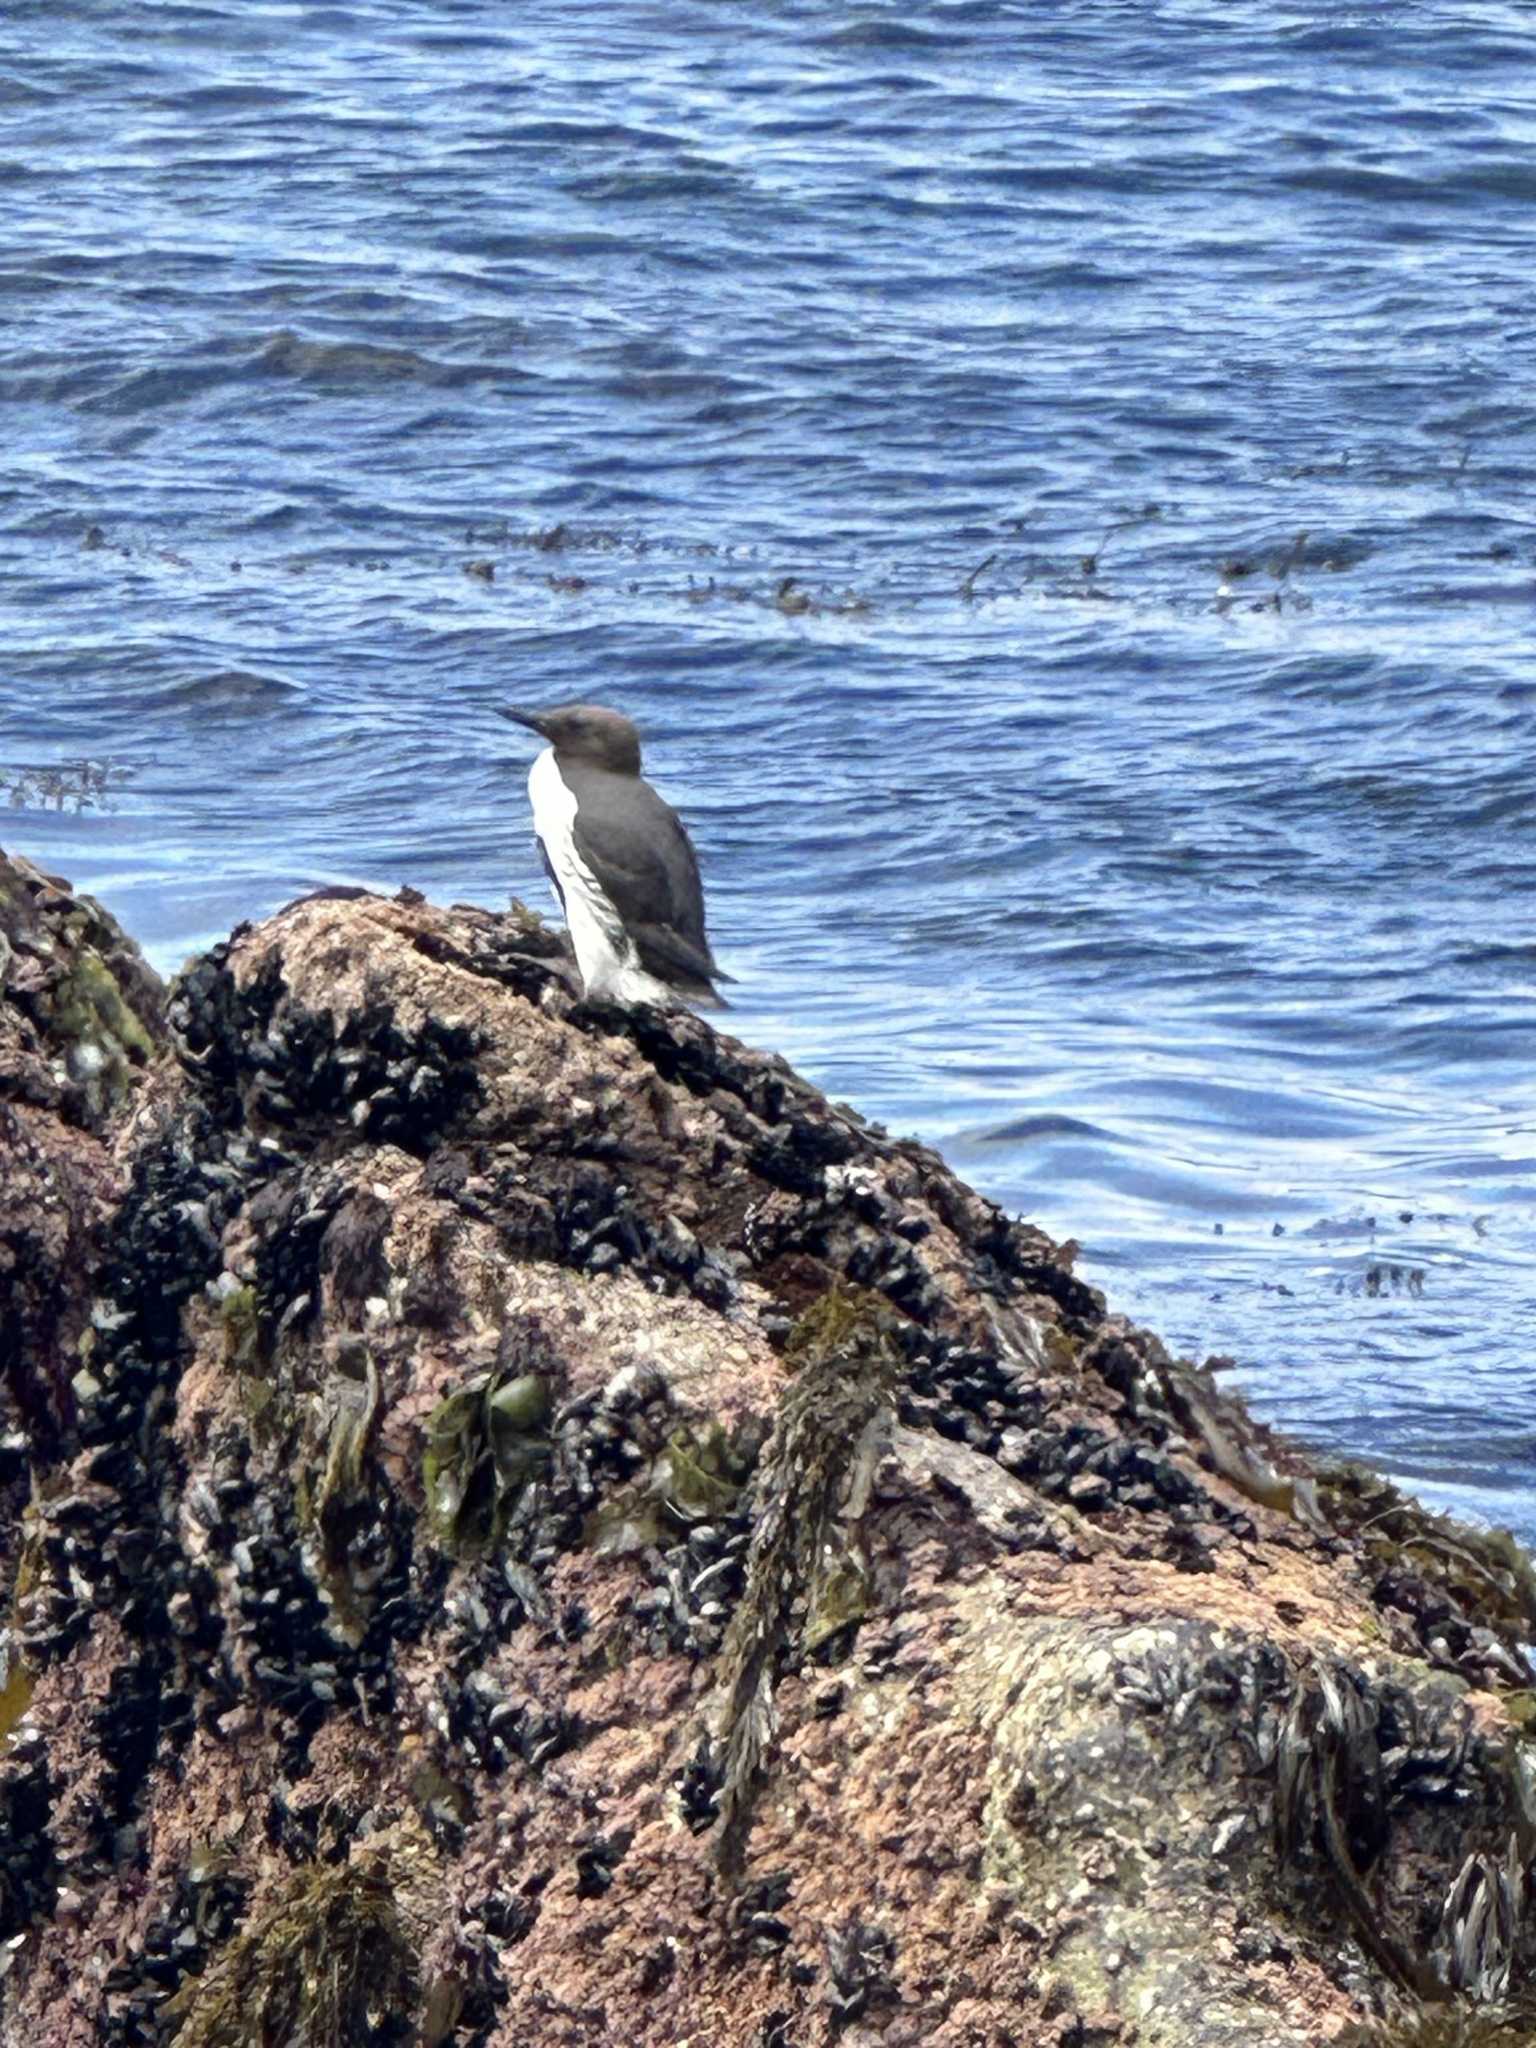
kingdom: Animalia
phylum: Chordata
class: Aves
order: Charadriiformes
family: Alcidae
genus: Uria
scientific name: Uria aalge
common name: Common murre
